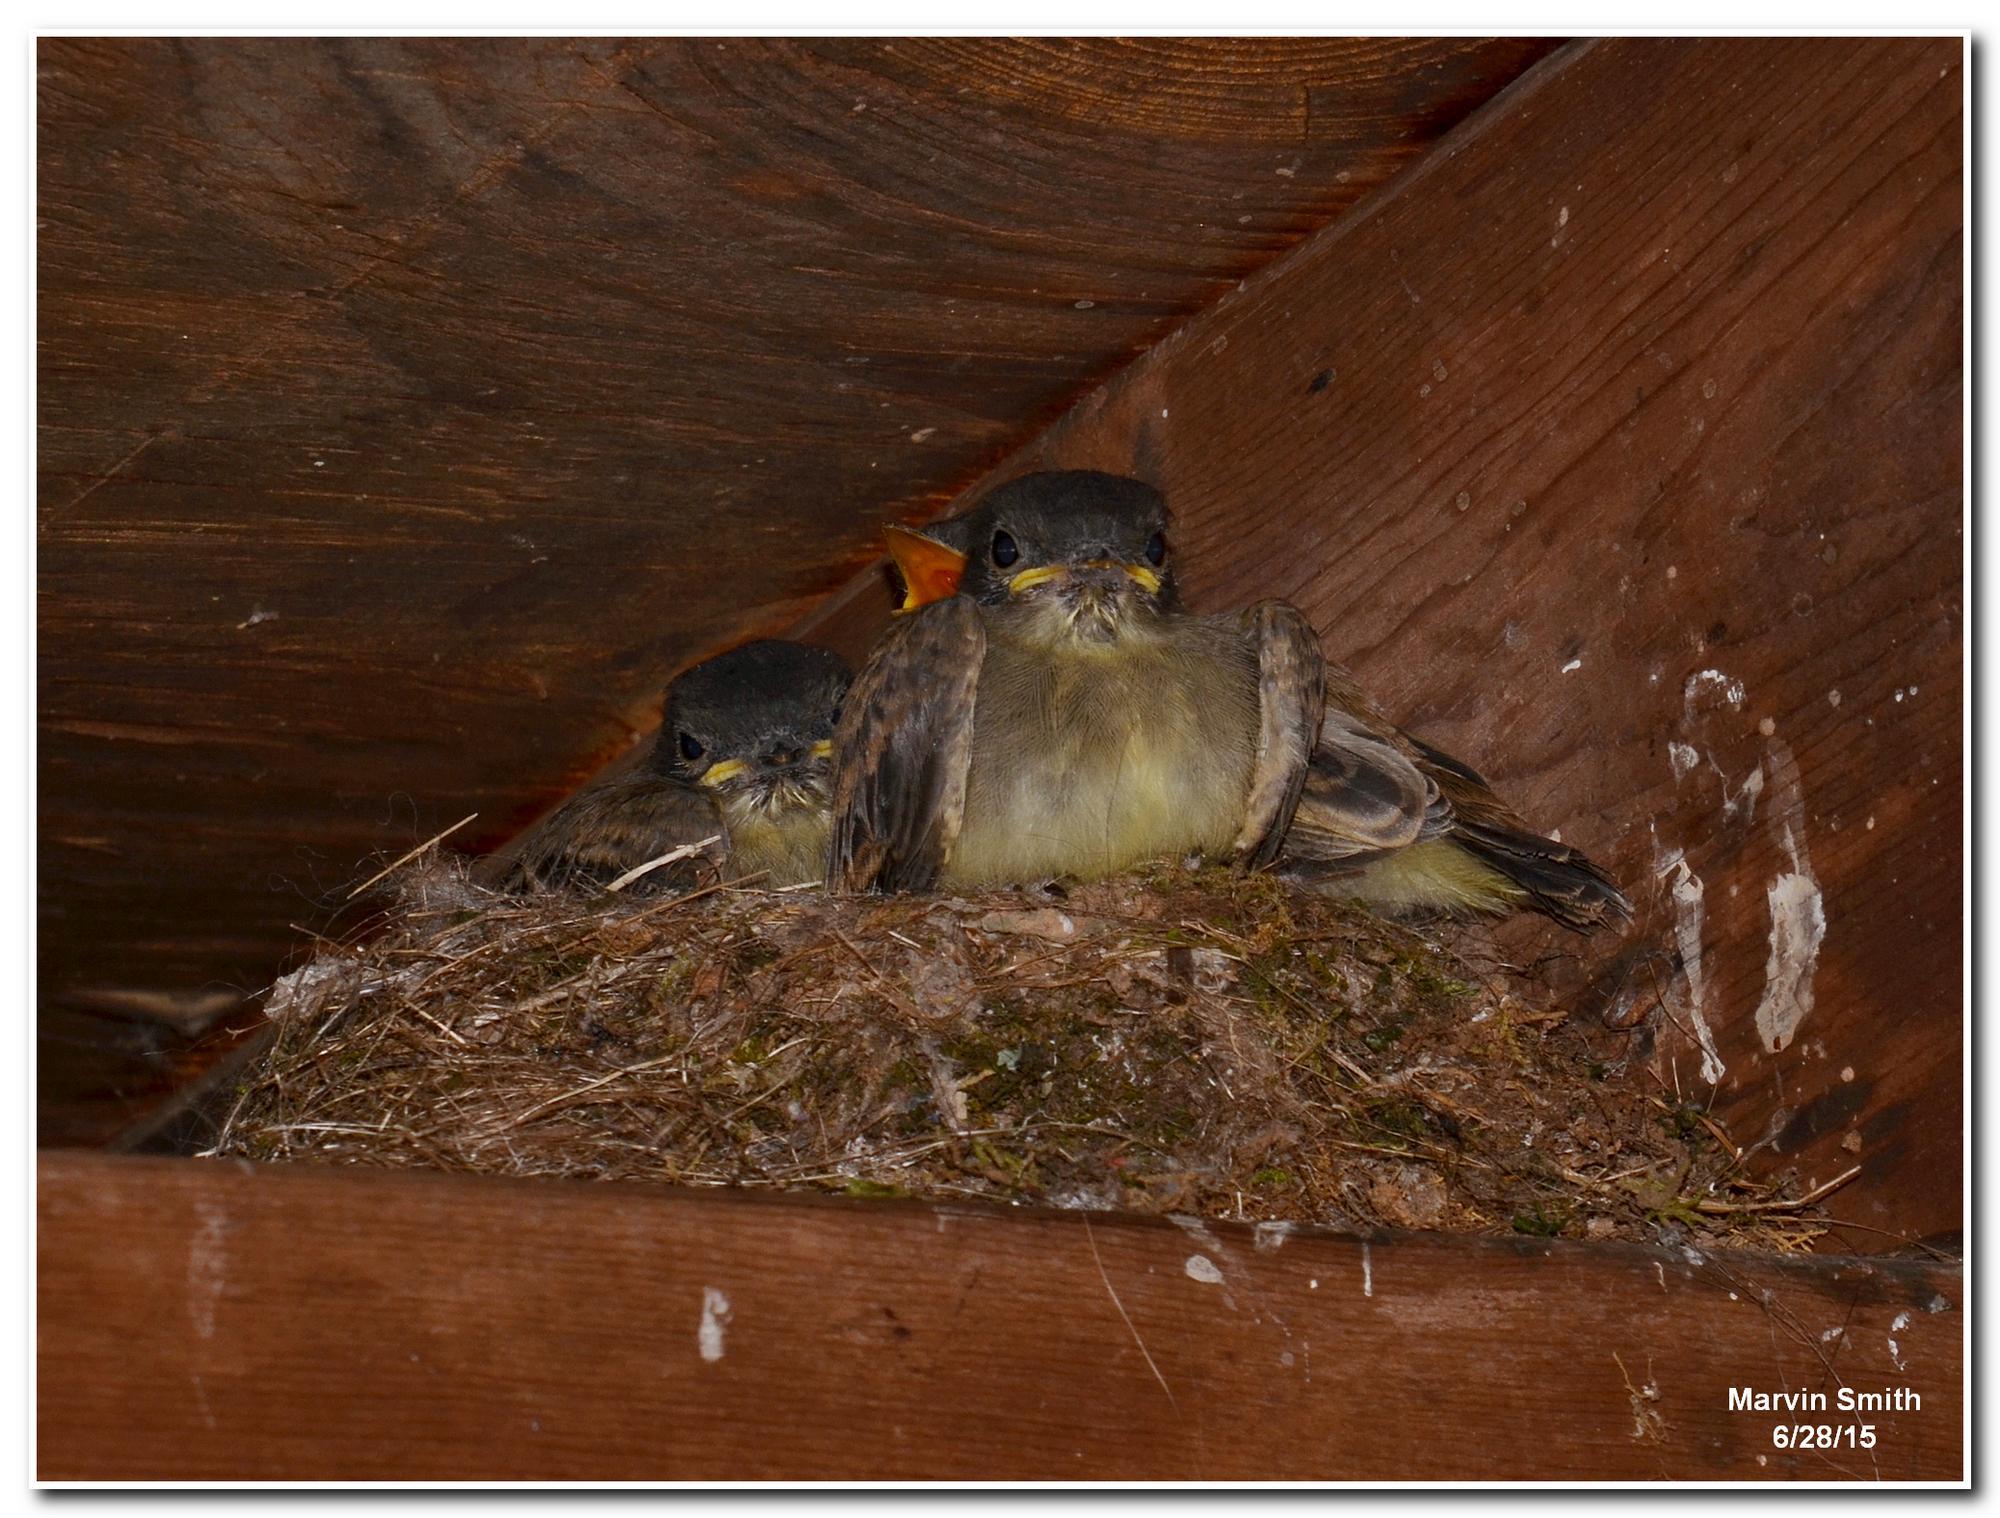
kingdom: Animalia
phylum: Chordata
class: Aves
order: Passeriformes
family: Tyrannidae
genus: Sayornis
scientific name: Sayornis phoebe
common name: Eastern phoebe
